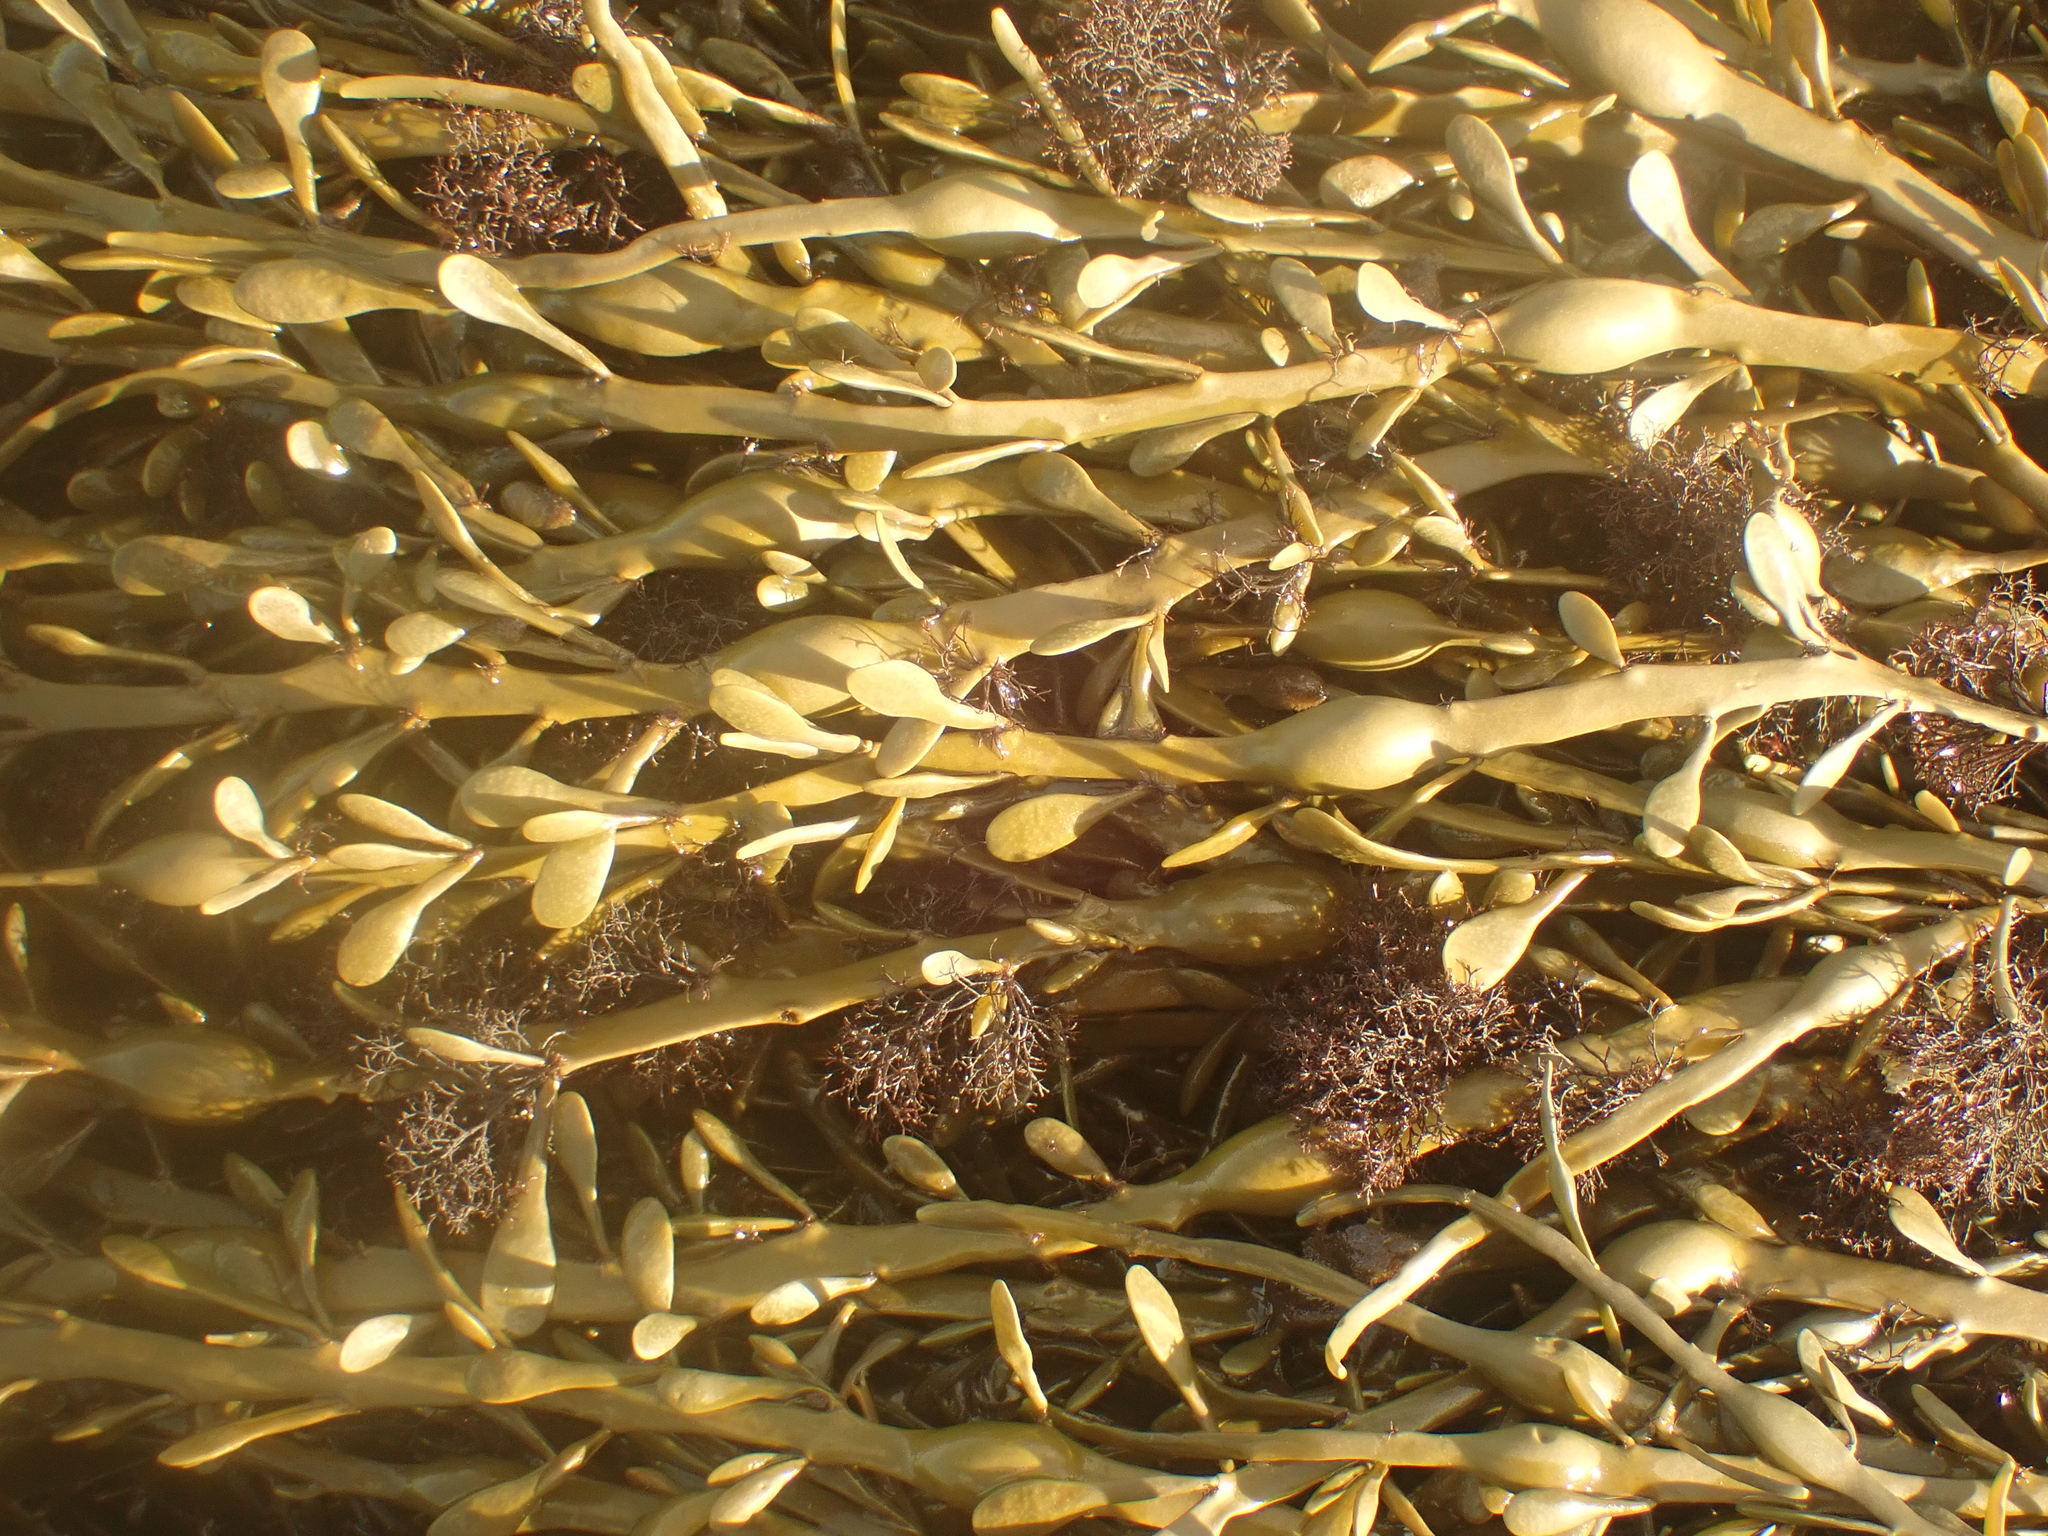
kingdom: Plantae
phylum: Rhodophyta
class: Florideophyceae
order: Ceramiales
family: Rhodomelaceae
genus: Vertebrata
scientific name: Vertebrata lanosa
